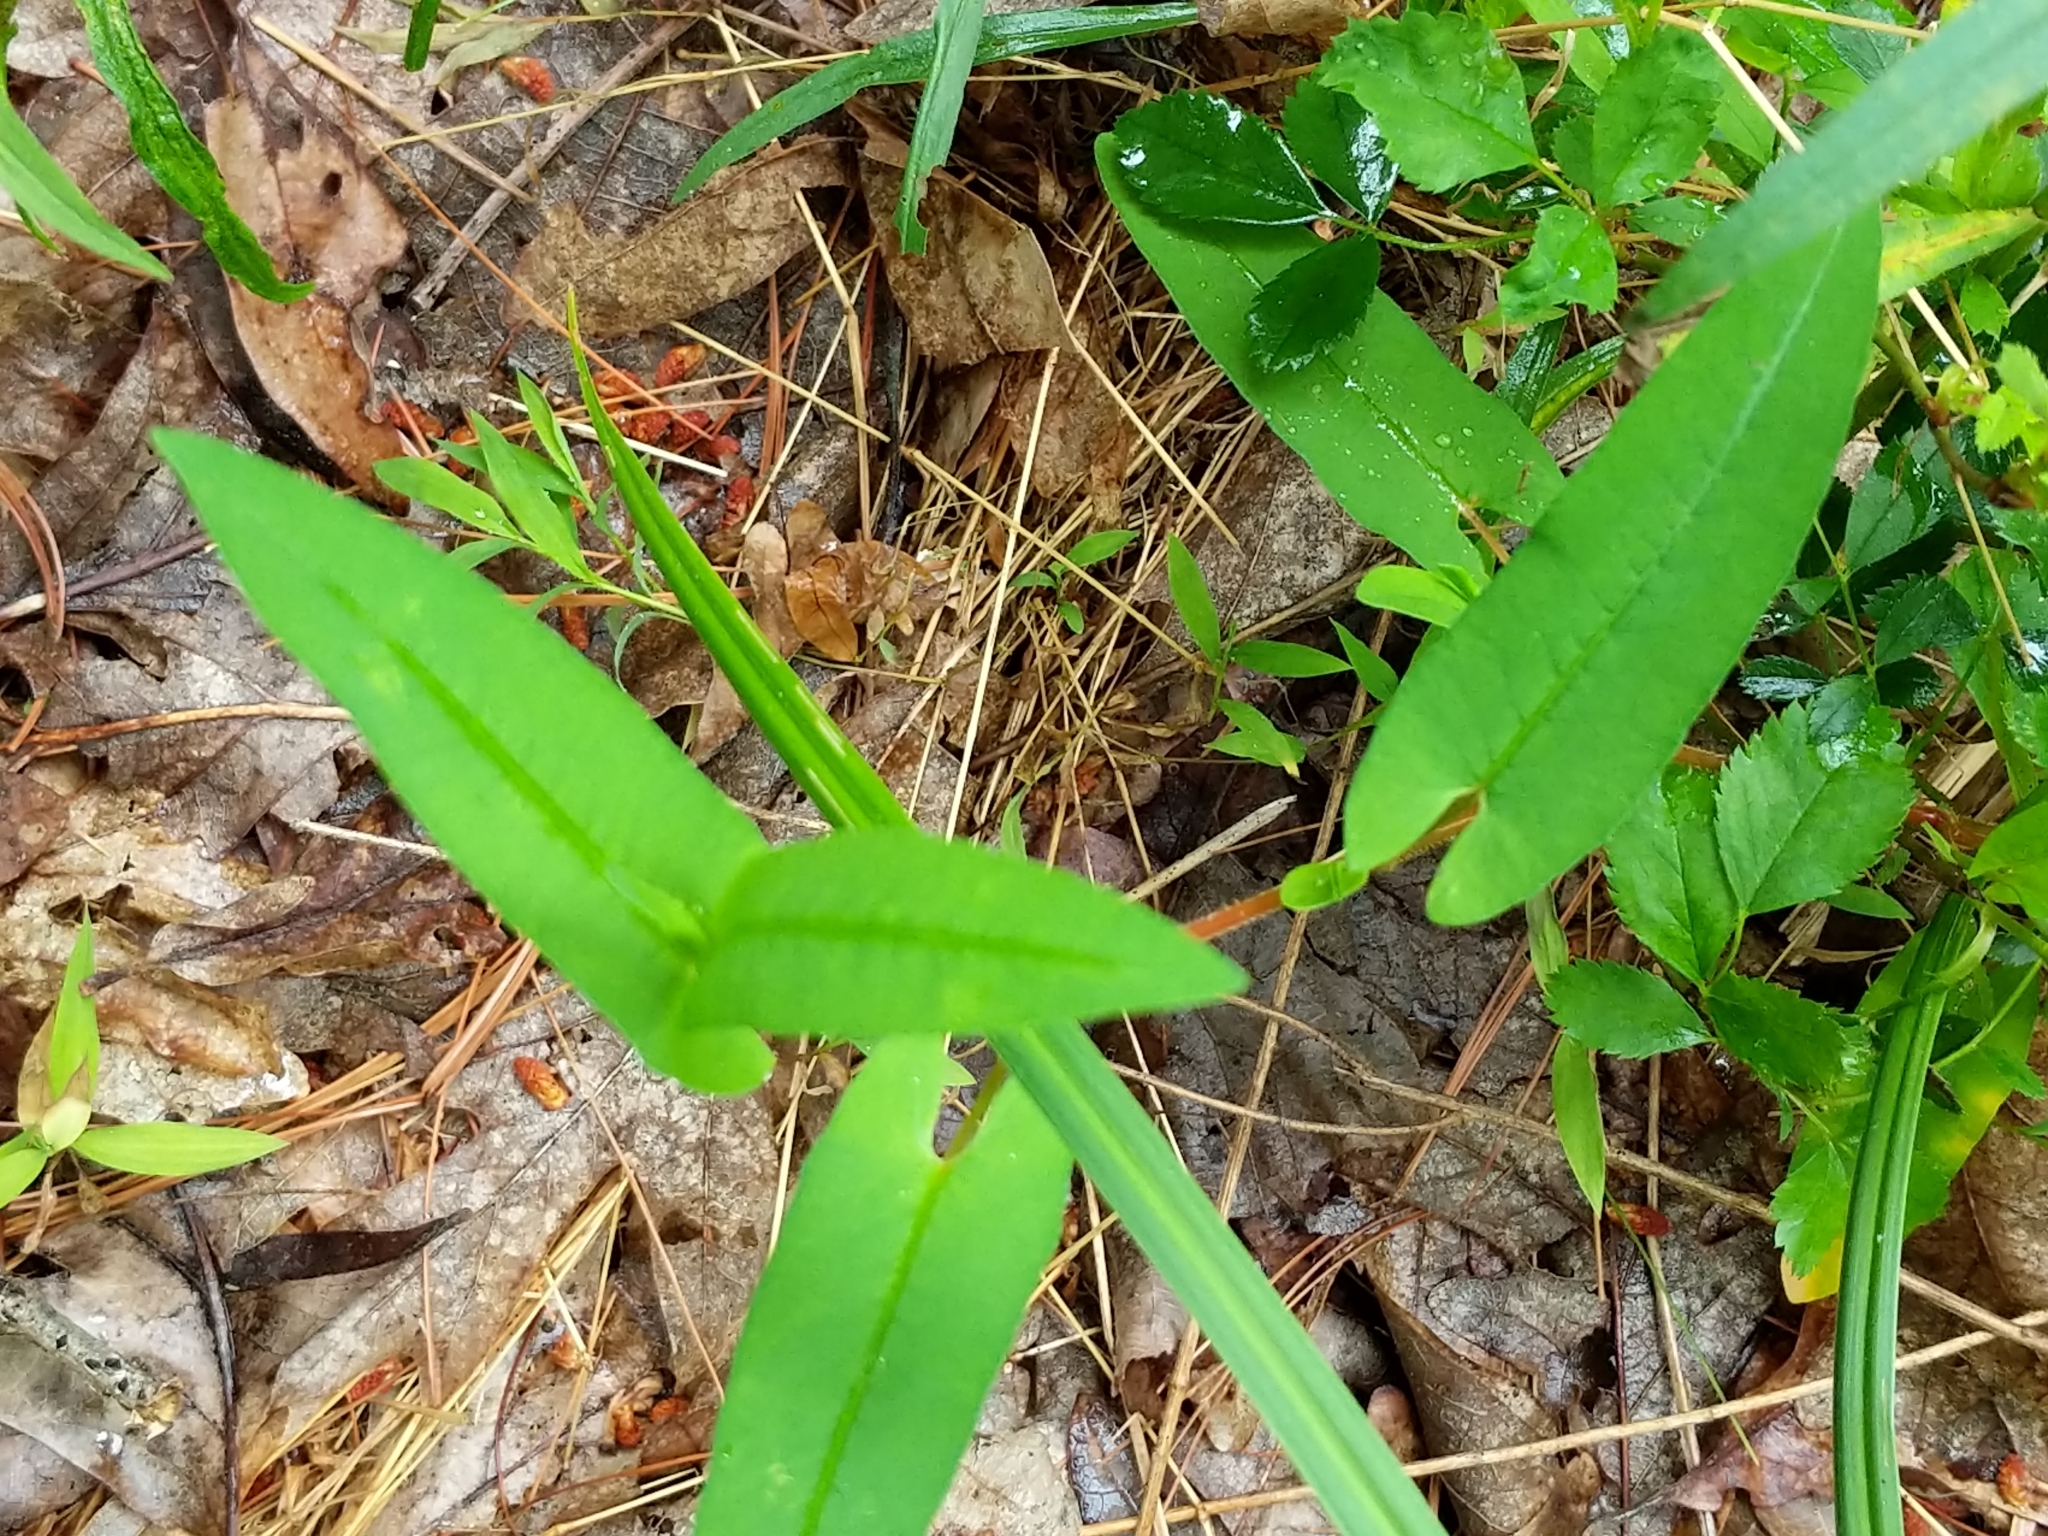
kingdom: Plantae
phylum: Tracheophyta
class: Magnoliopsida
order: Caryophyllales
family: Polygonaceae
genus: Persicaria
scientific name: Persicaria sagittata
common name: American tearthumb
